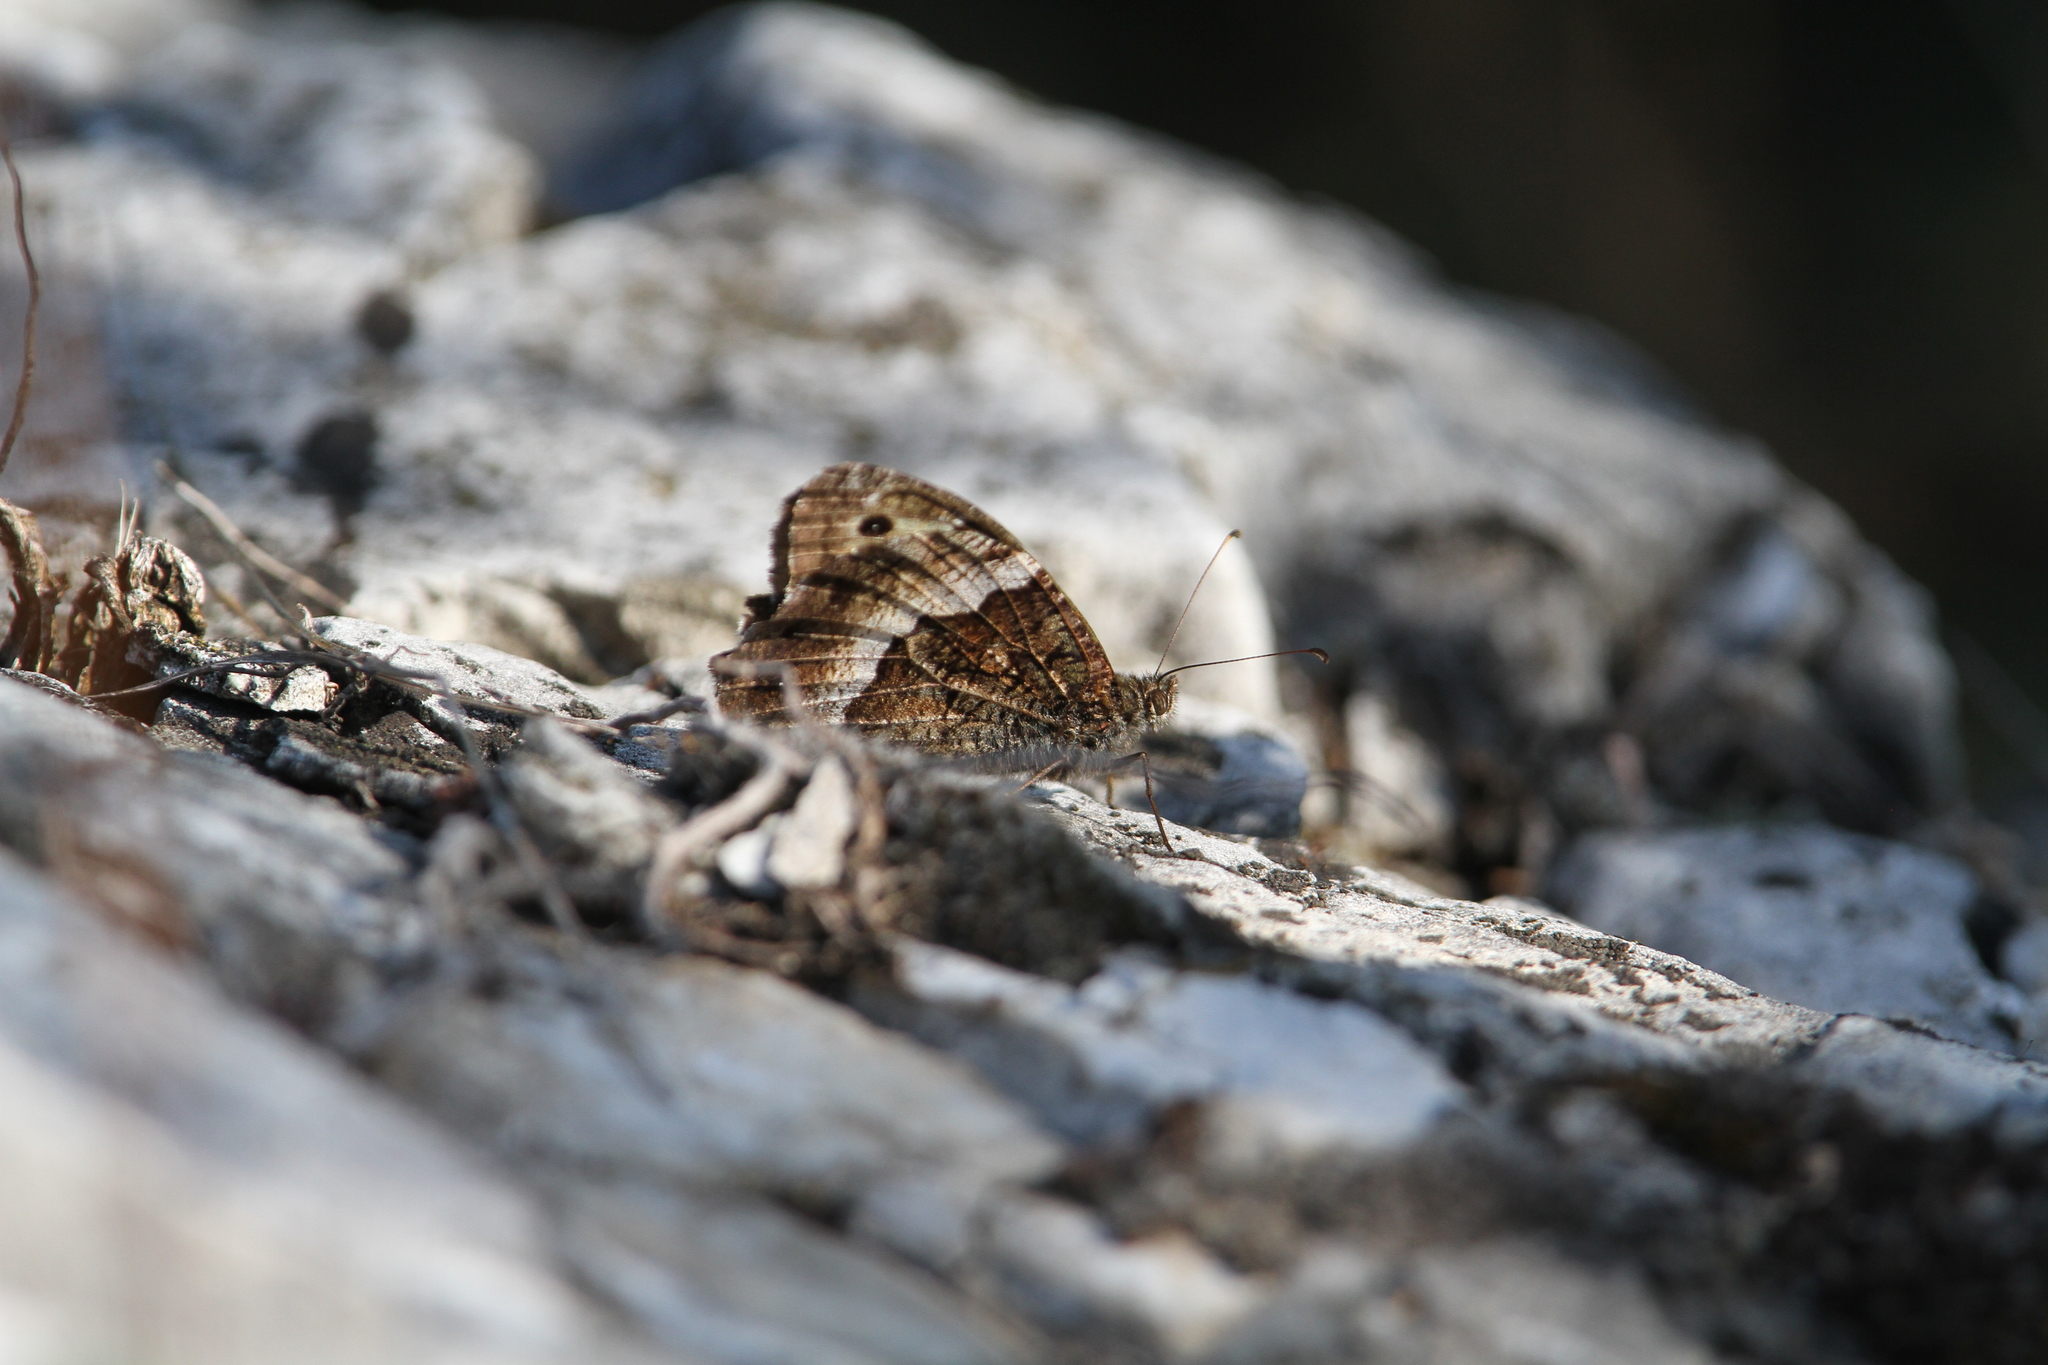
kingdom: Animalia
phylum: Arthropoda
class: Insecta
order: Lepidoptera
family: Nymphalidae
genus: Hipparchia
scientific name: Hipparchia fagi
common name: Woodland grayling
